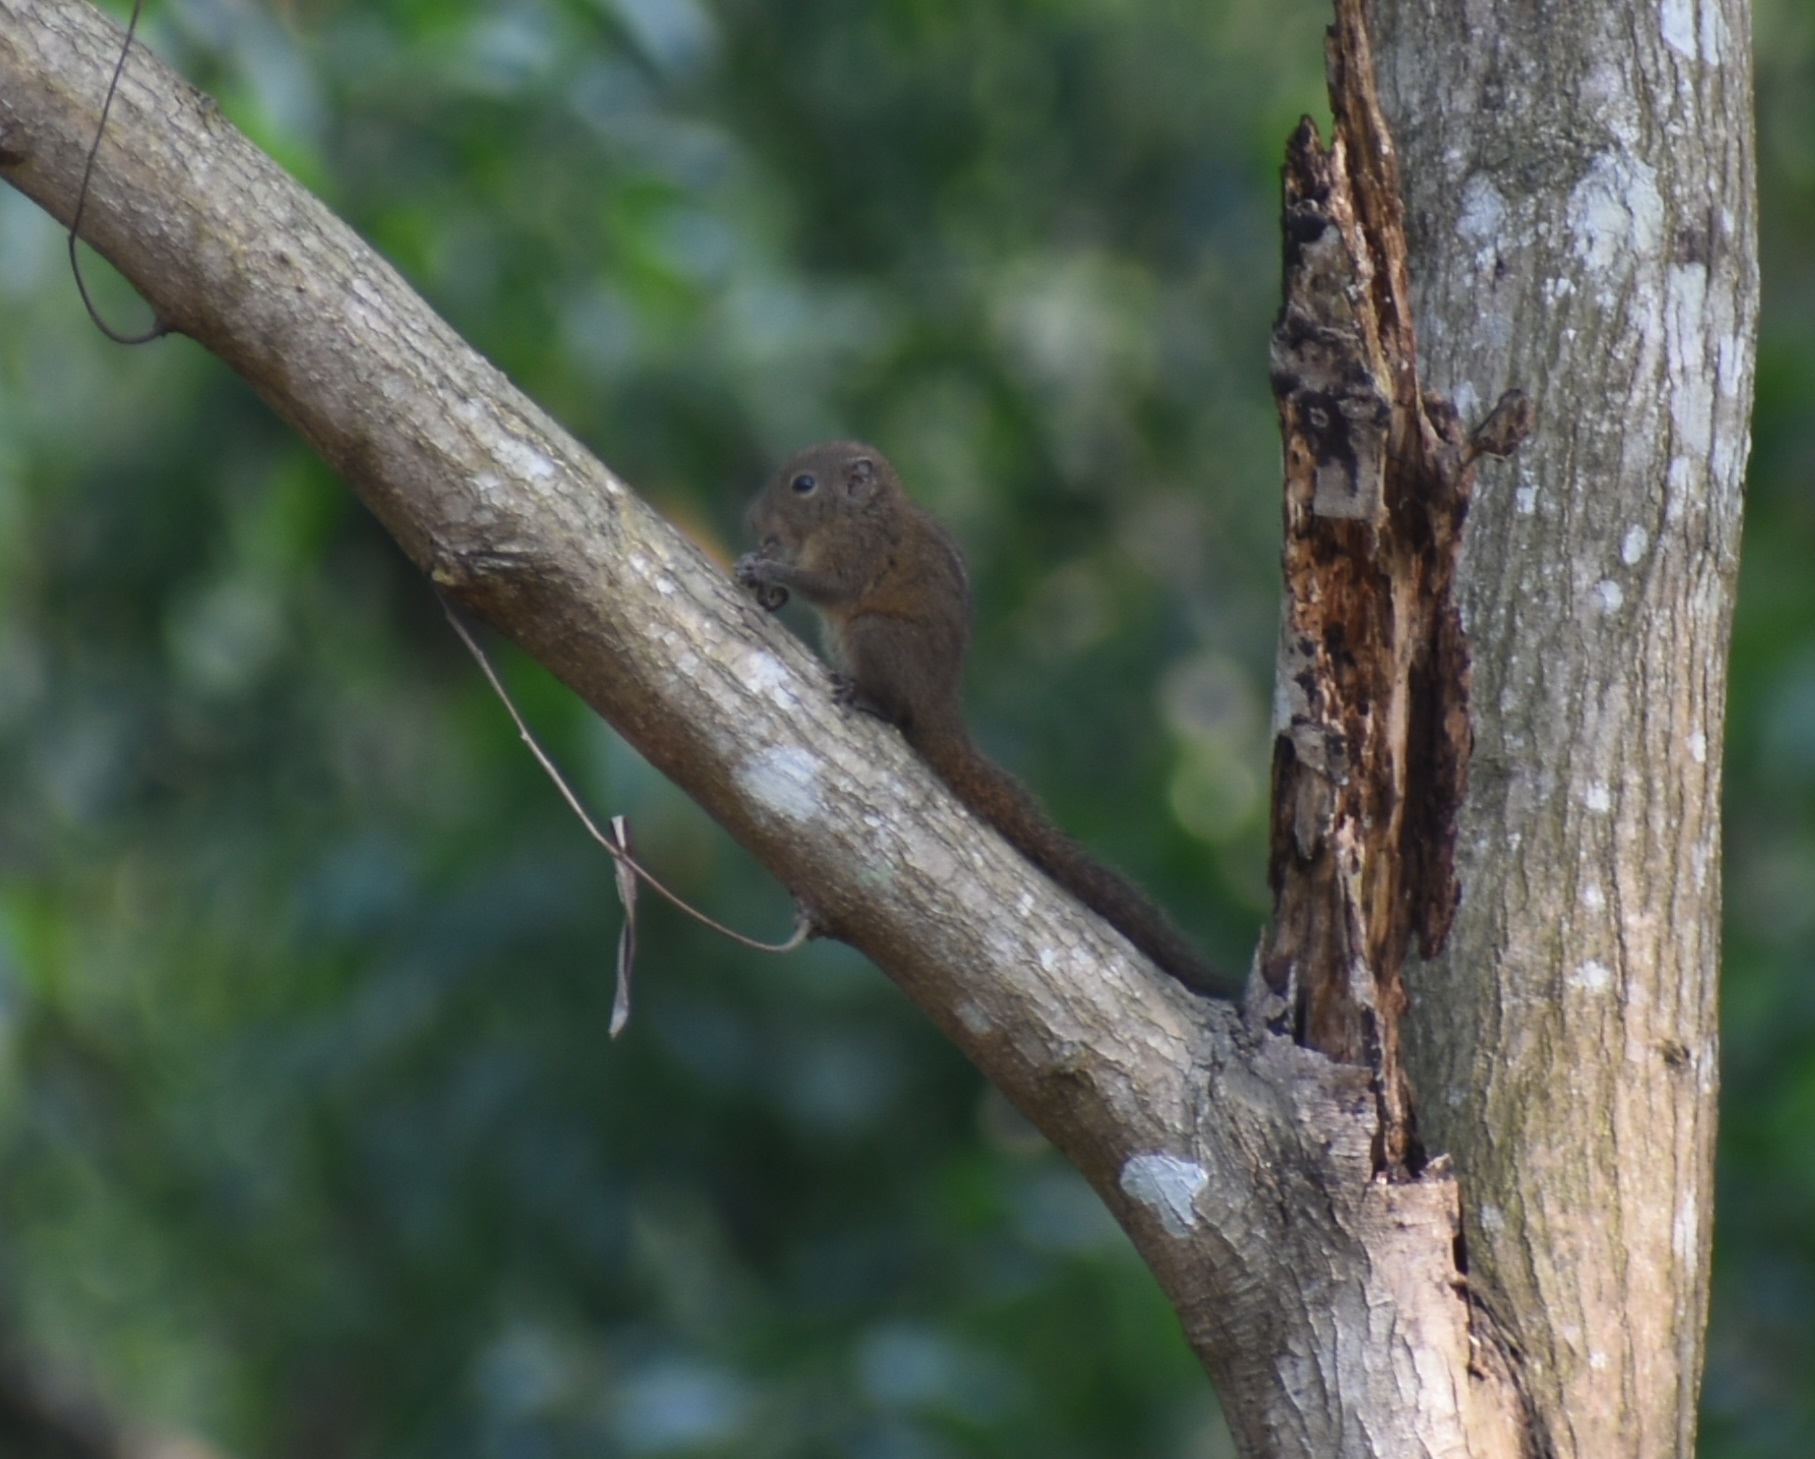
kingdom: Animalia
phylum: Chordata
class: Mammalia
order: Rodentia
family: Sciuridae
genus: Funambulus
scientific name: Funambulus sublineatus
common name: Dusky palm squirrel
